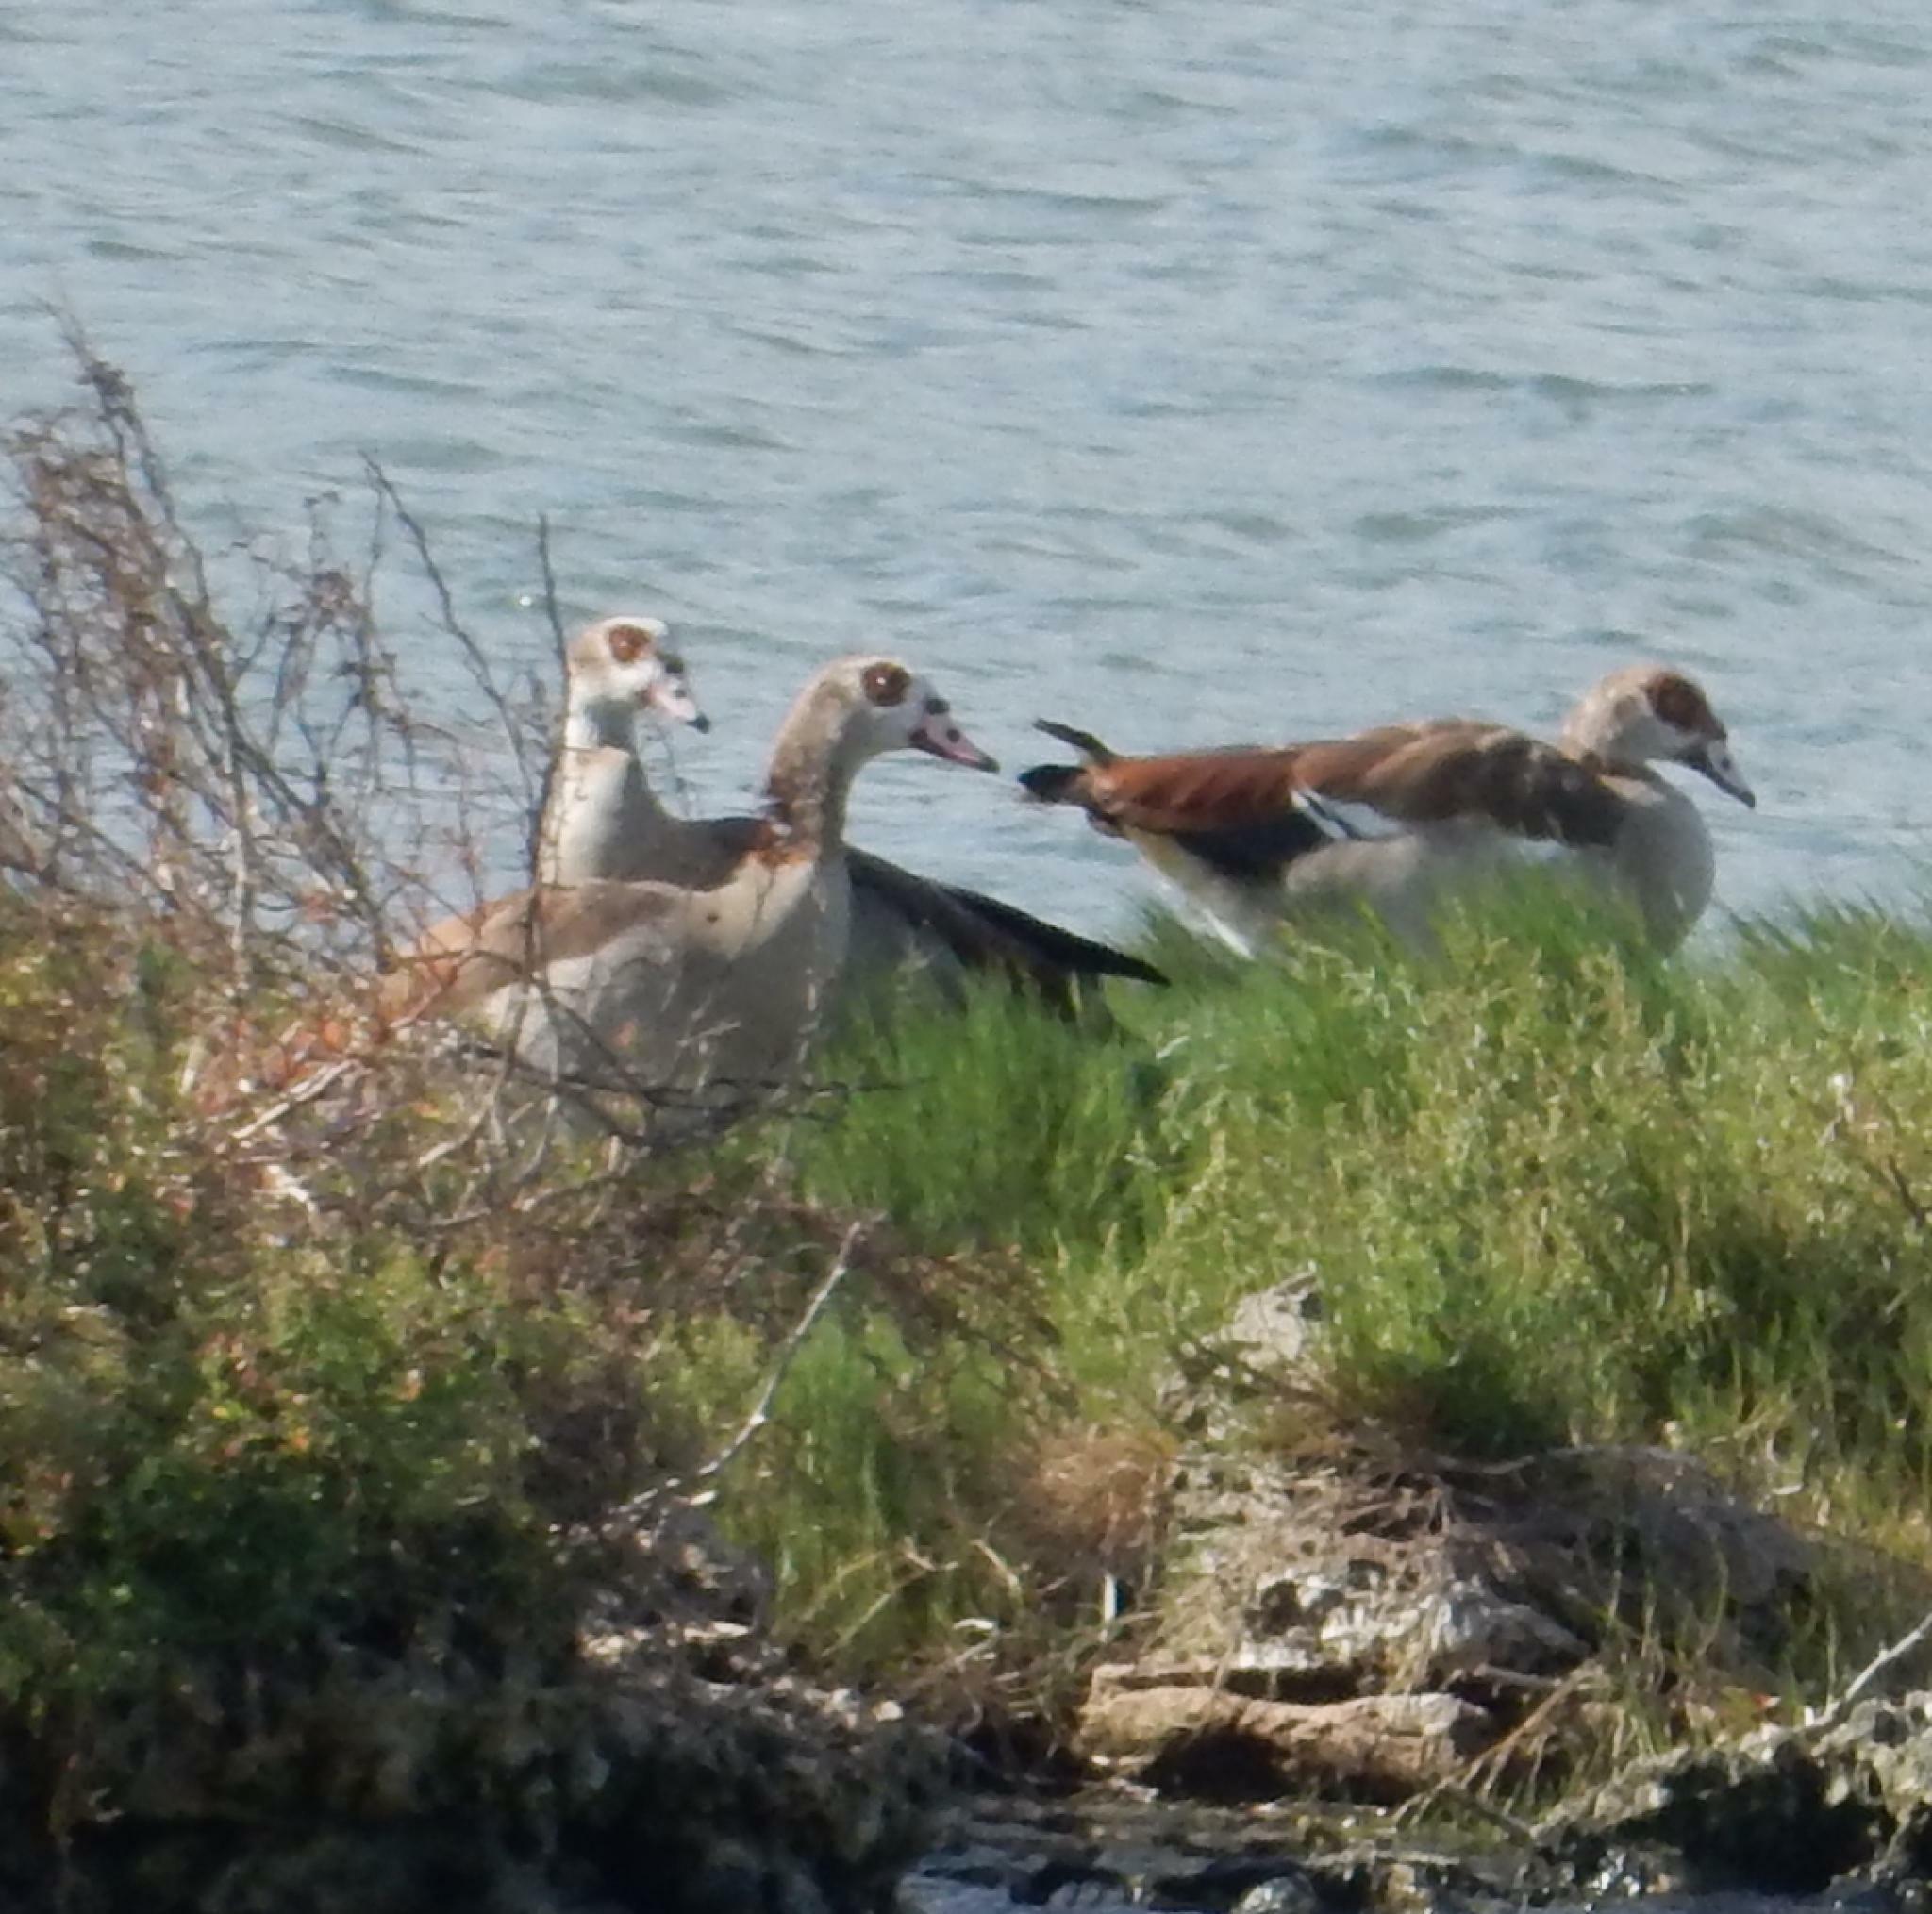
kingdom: Animalia
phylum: Chordata
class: Aves
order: Anseriformes
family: Anatidae
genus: Alopochen
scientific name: Alopochen aegyptiaca
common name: Egyptian goose
